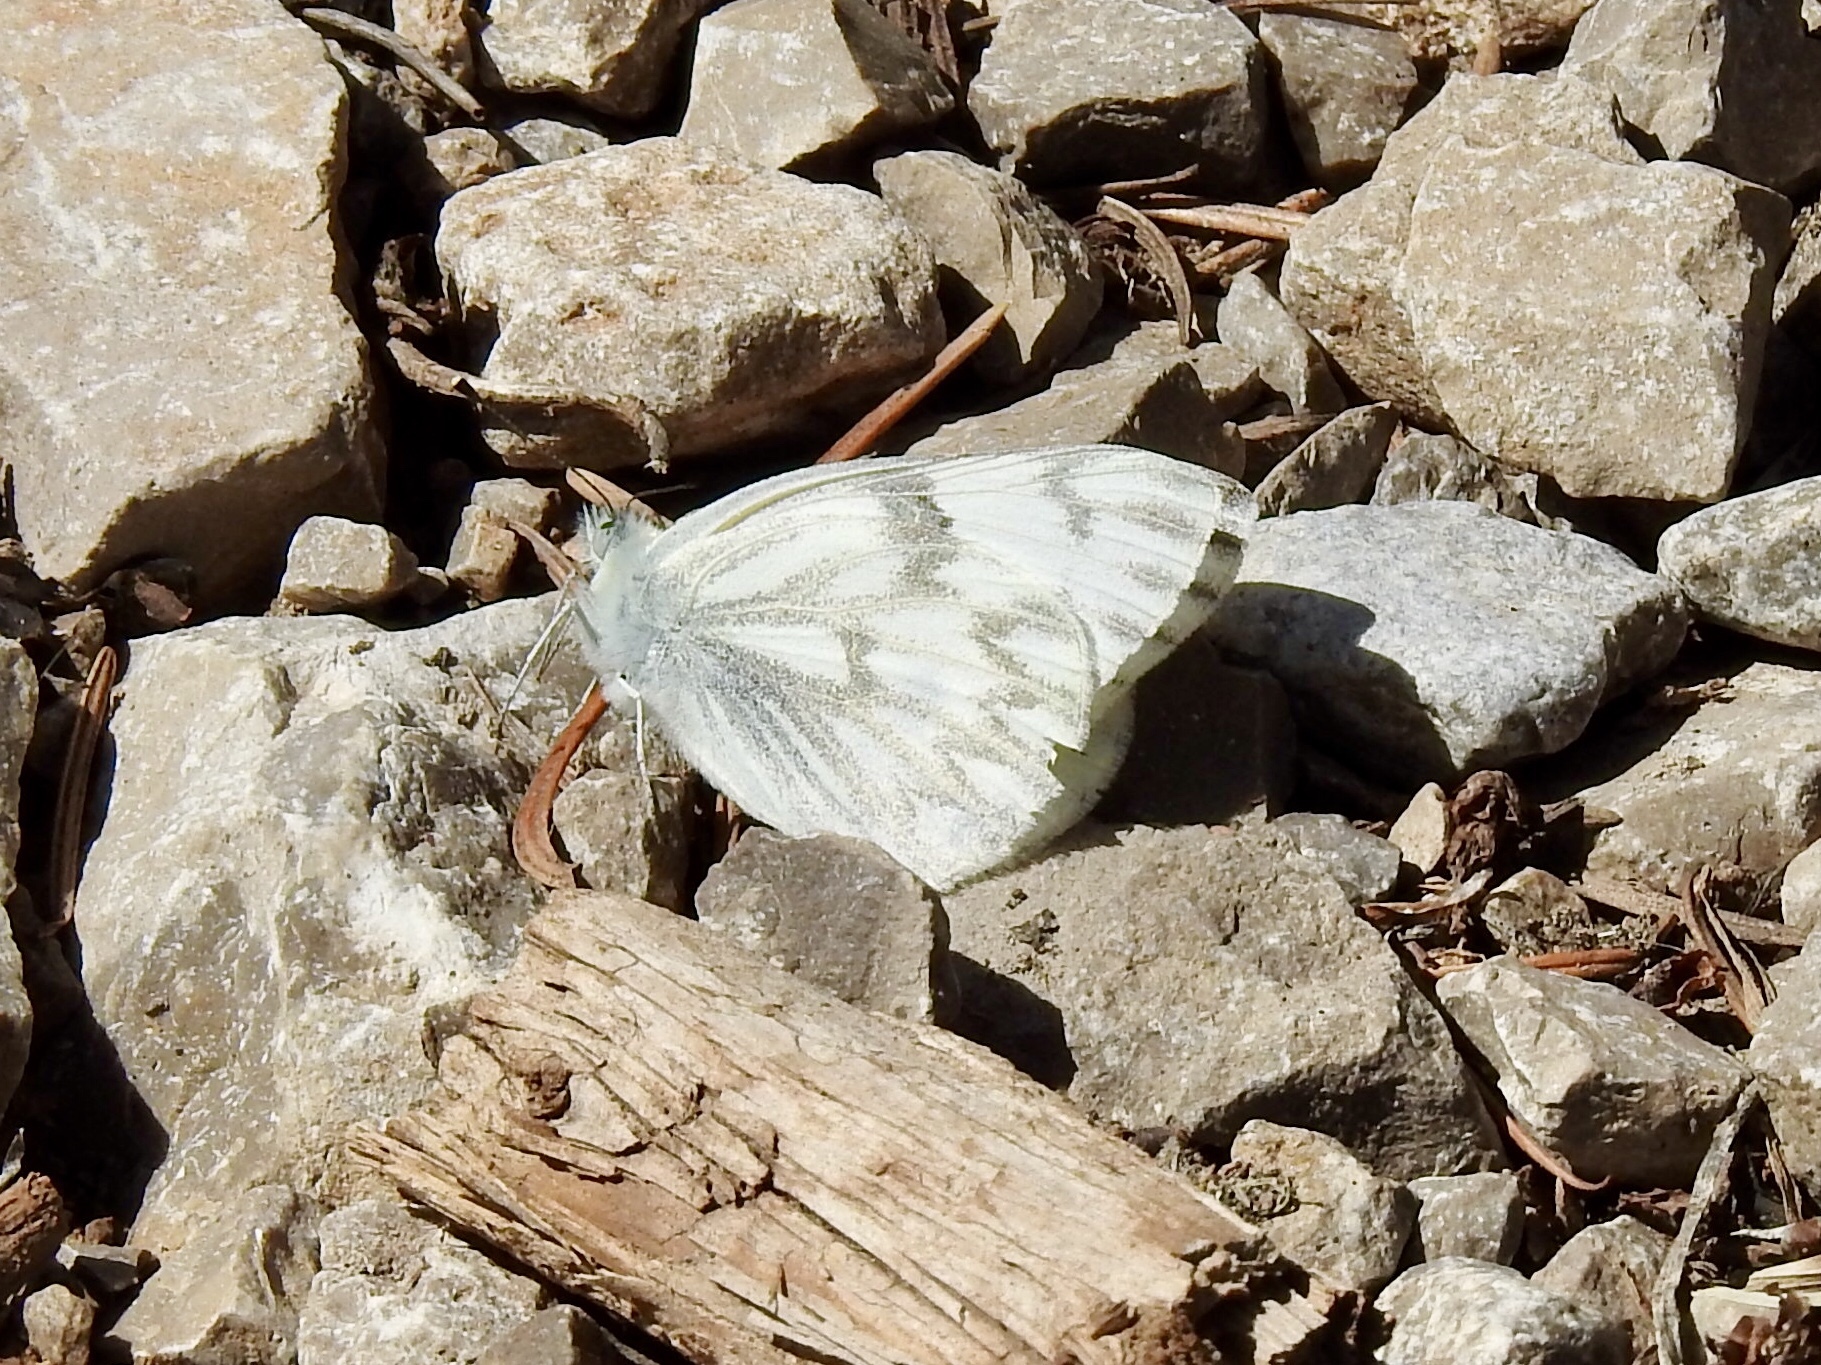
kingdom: Animalia
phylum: Arthropoda
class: Insecta
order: Lepidoptera
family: Pieridae
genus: Pontia
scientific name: Pontia protodice
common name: Checkered white
